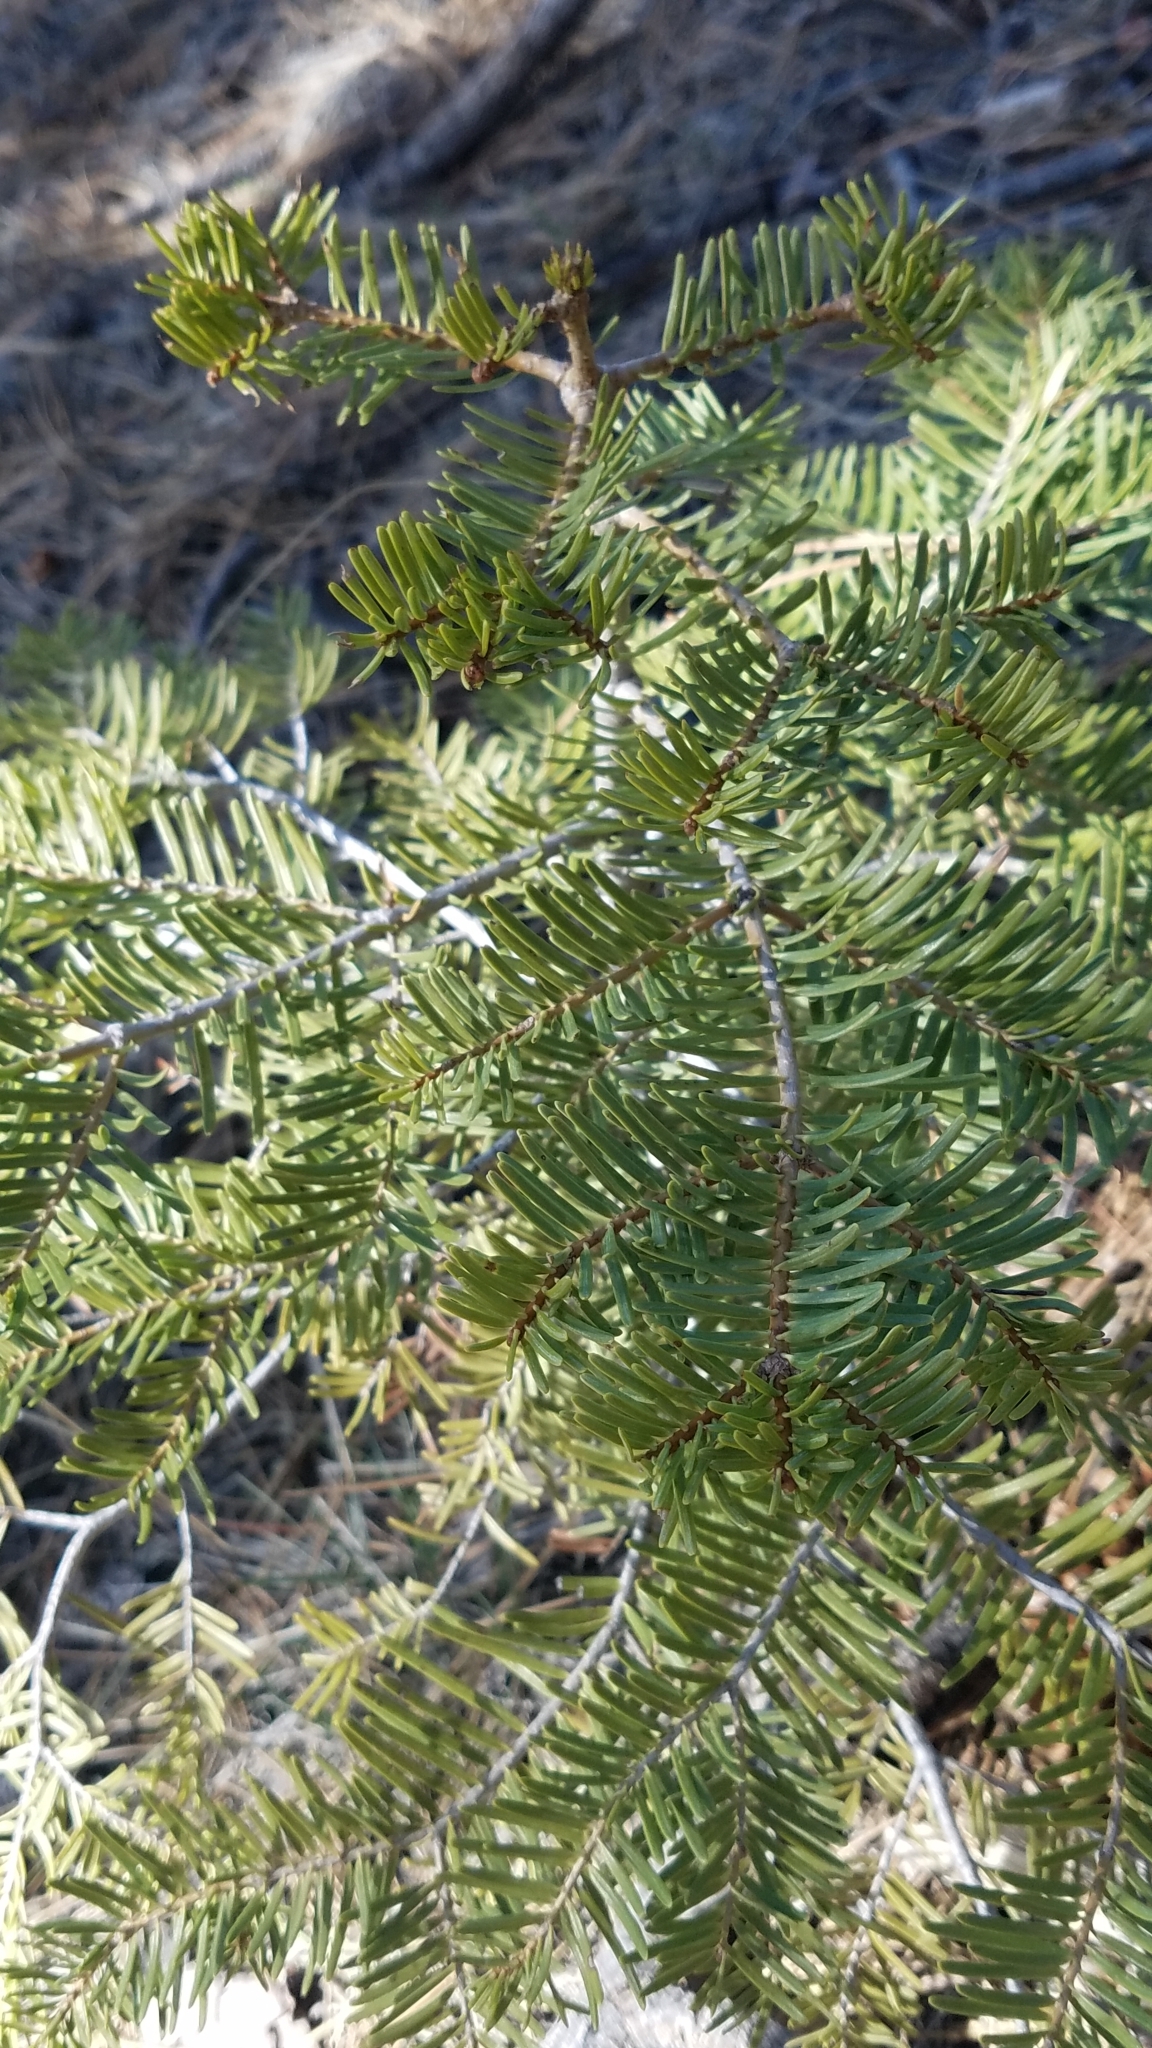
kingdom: Plantae
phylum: Tracheophyta
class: Pinopsida
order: Pinales
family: Pinaceae
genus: Abies
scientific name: Abies concolor
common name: Colorado fir
